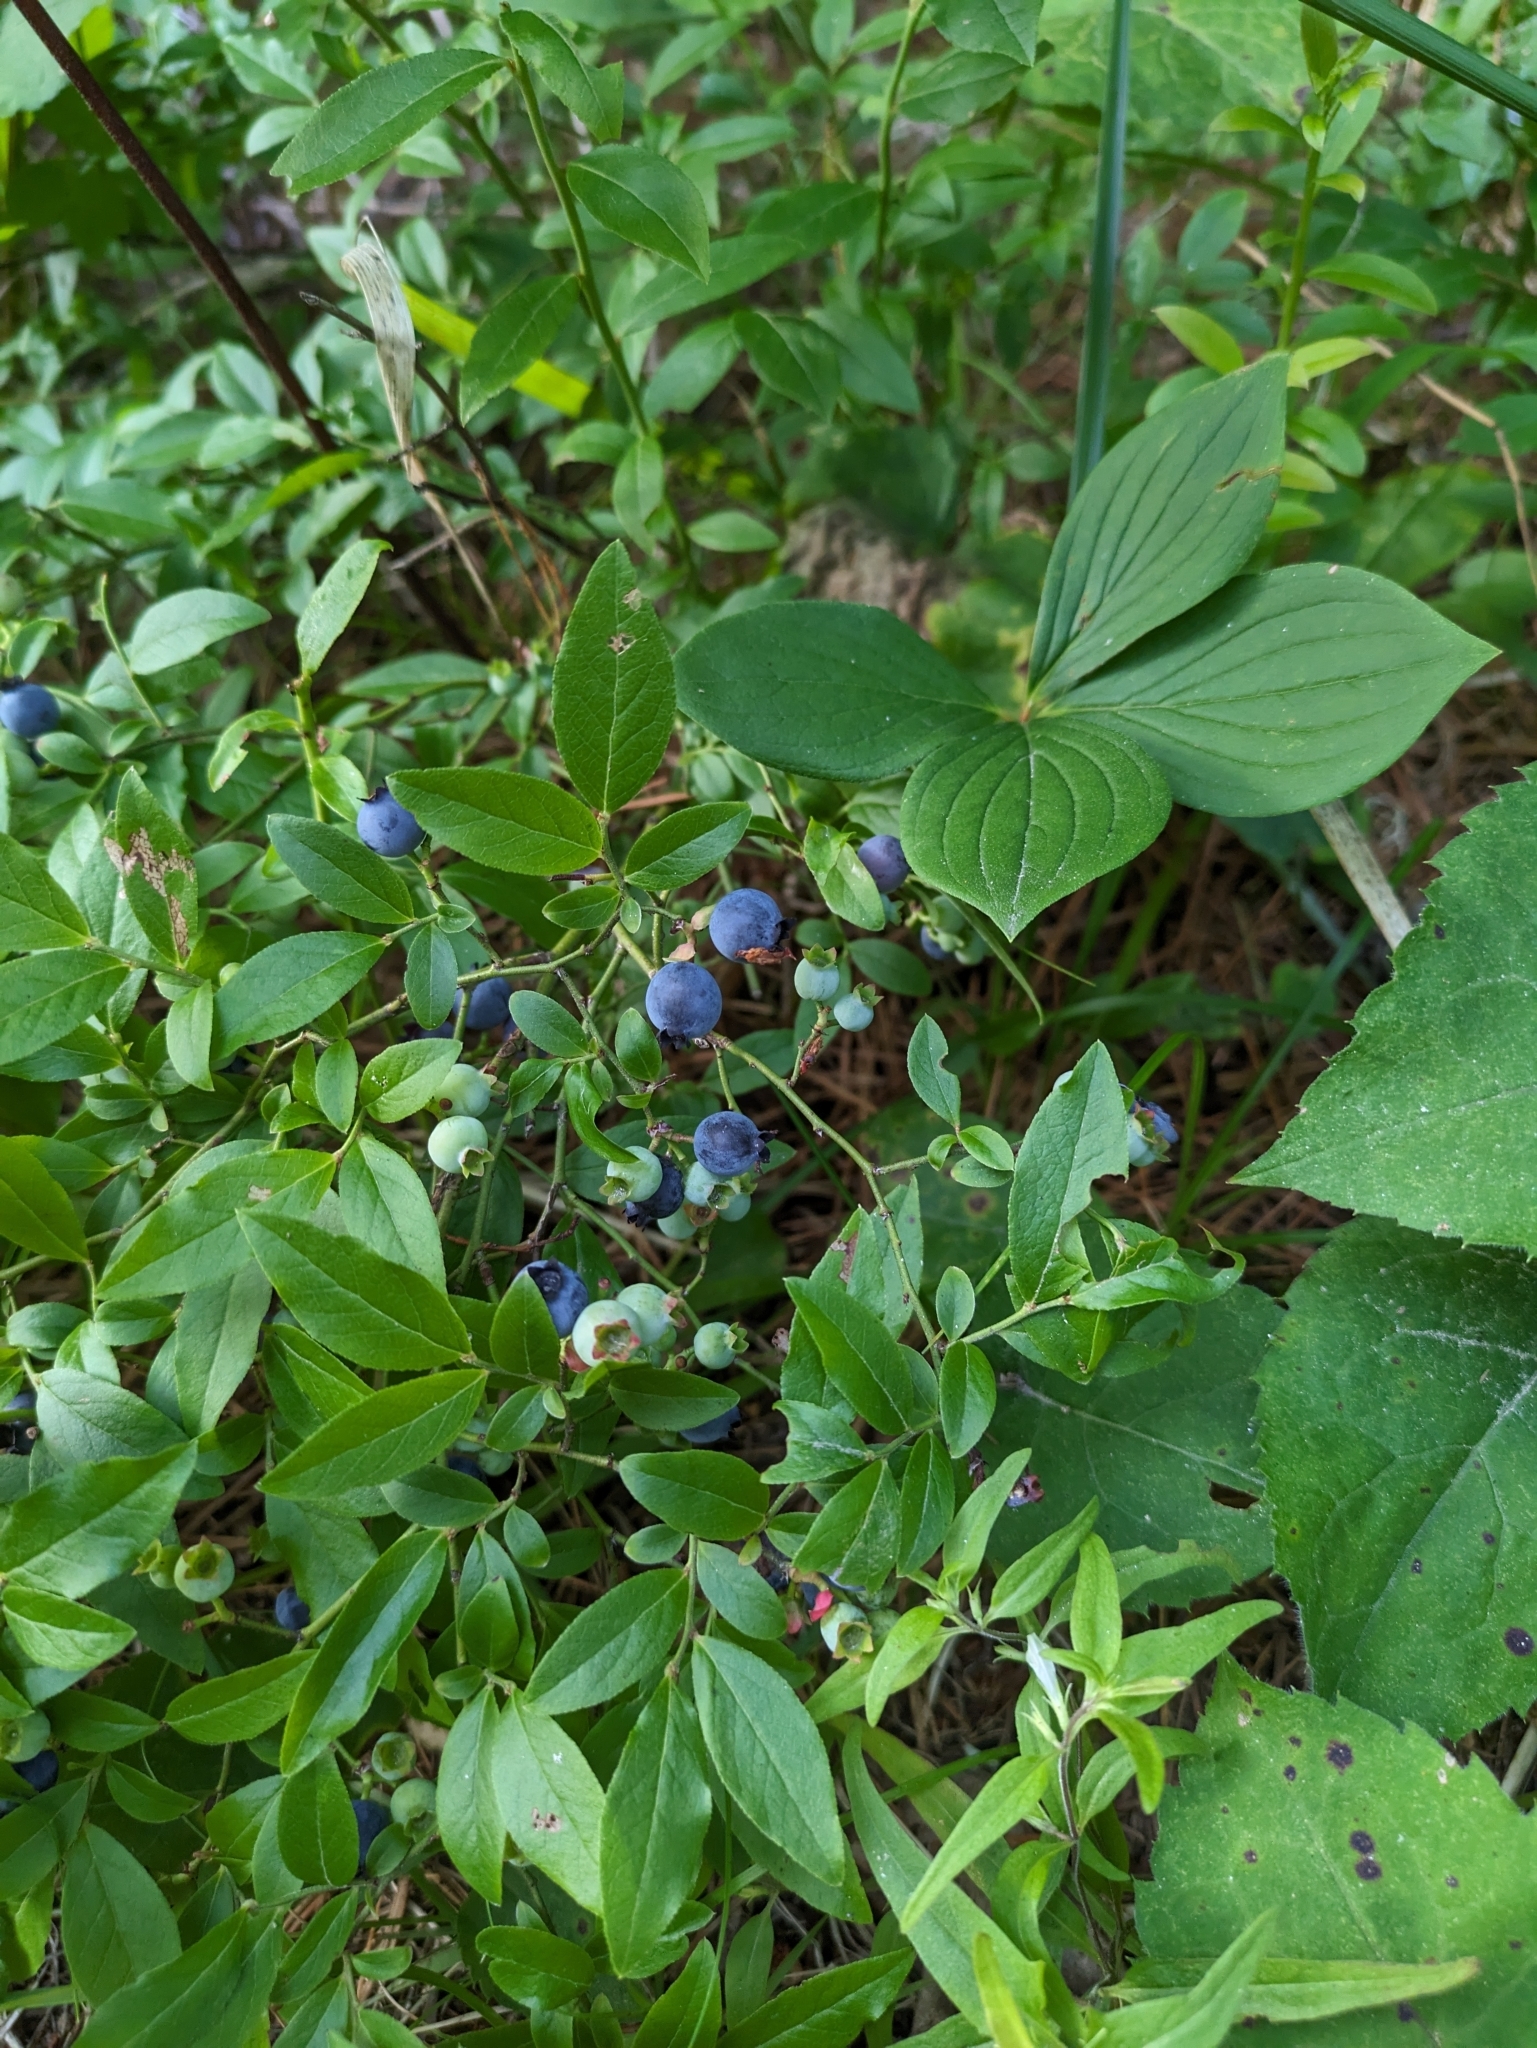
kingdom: Plantae
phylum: Tracheophyta
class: Magnoliopsida
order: Ericales
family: Ericaceae
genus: Vaccinium
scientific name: Vaccinium angustifolium
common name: Early lowbush blueberry
